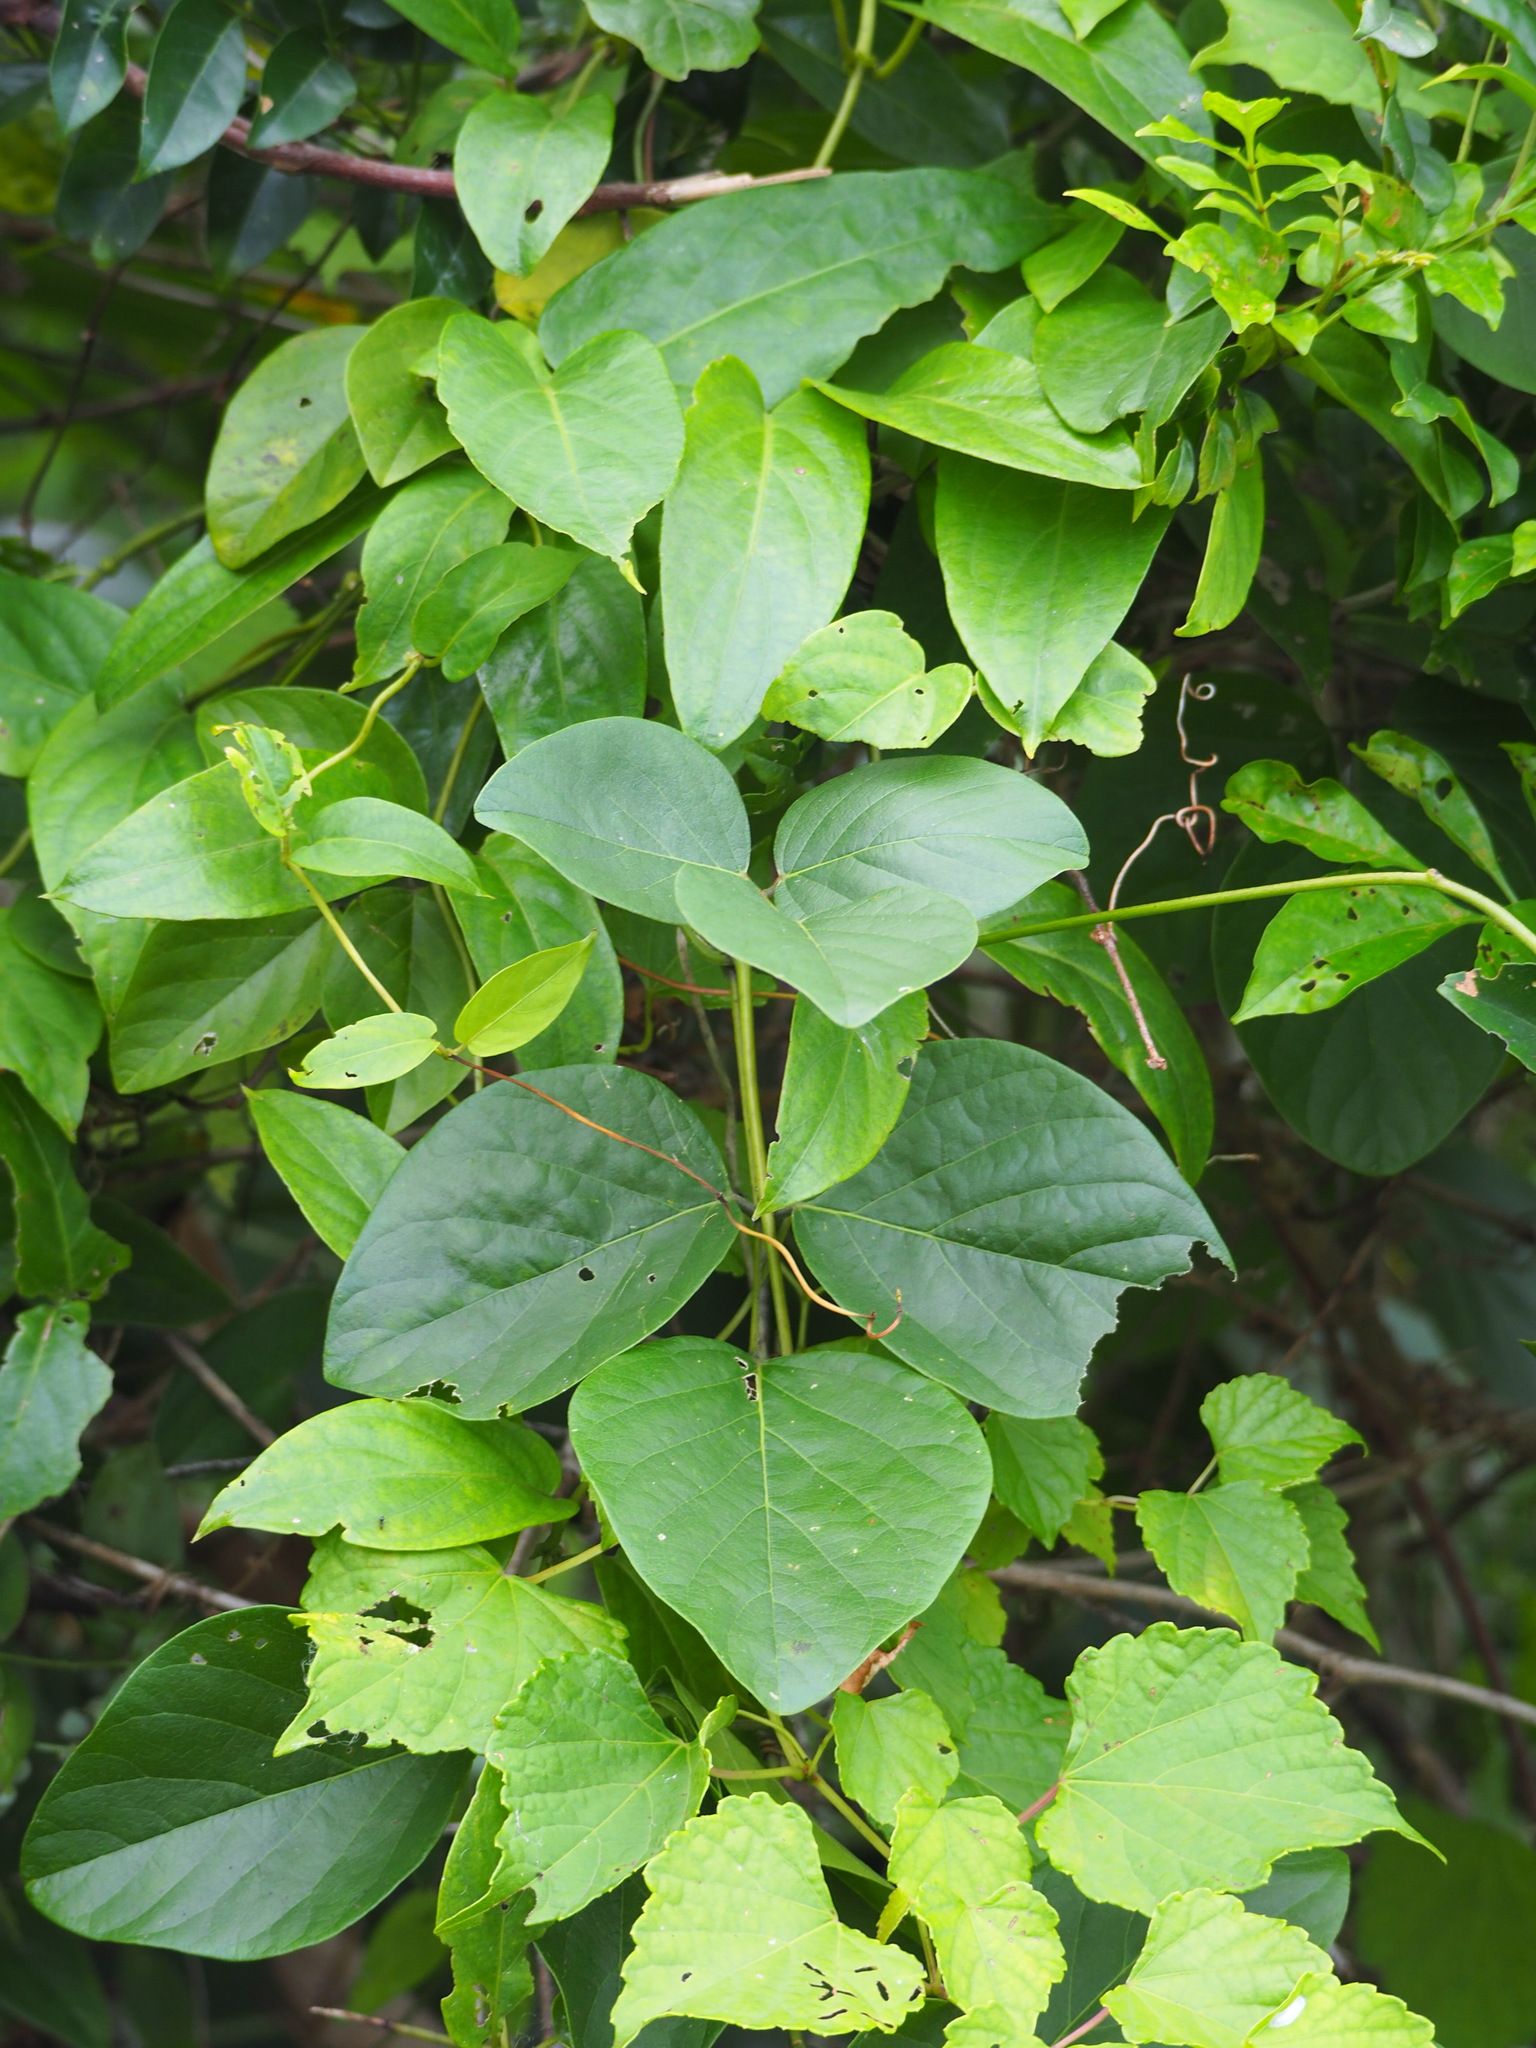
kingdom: Plantae
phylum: Tracheophyta
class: Magnoliopsida
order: Fabales
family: Fabaceae
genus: Canavalia
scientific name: Canavalia lineata
